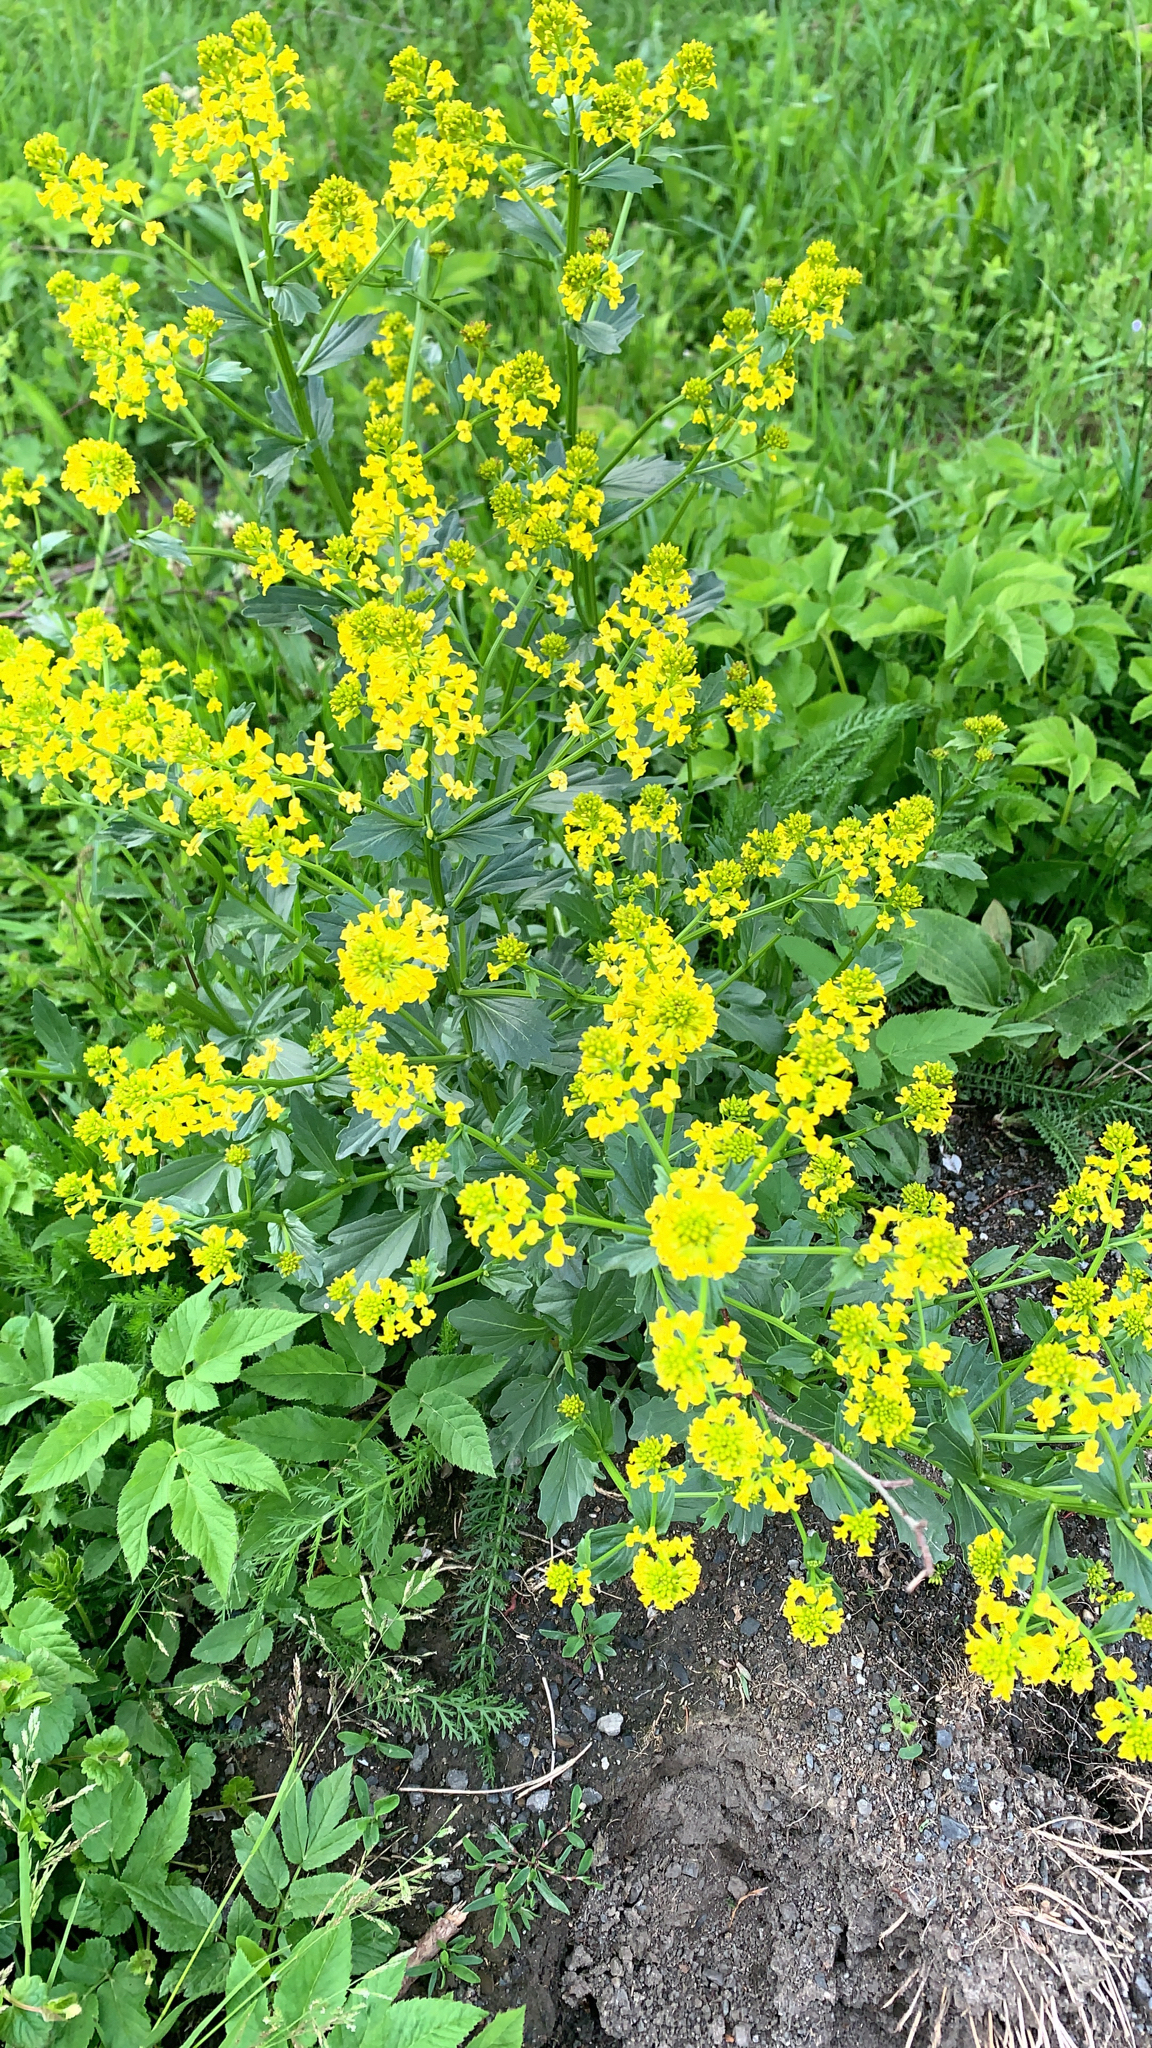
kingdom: Plantae
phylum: Tracheophyta
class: Magnoliopsida
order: Brassicales
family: Brassicaceae
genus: Barbarea
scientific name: Barbarea vulgaris
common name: Cressy-greens
